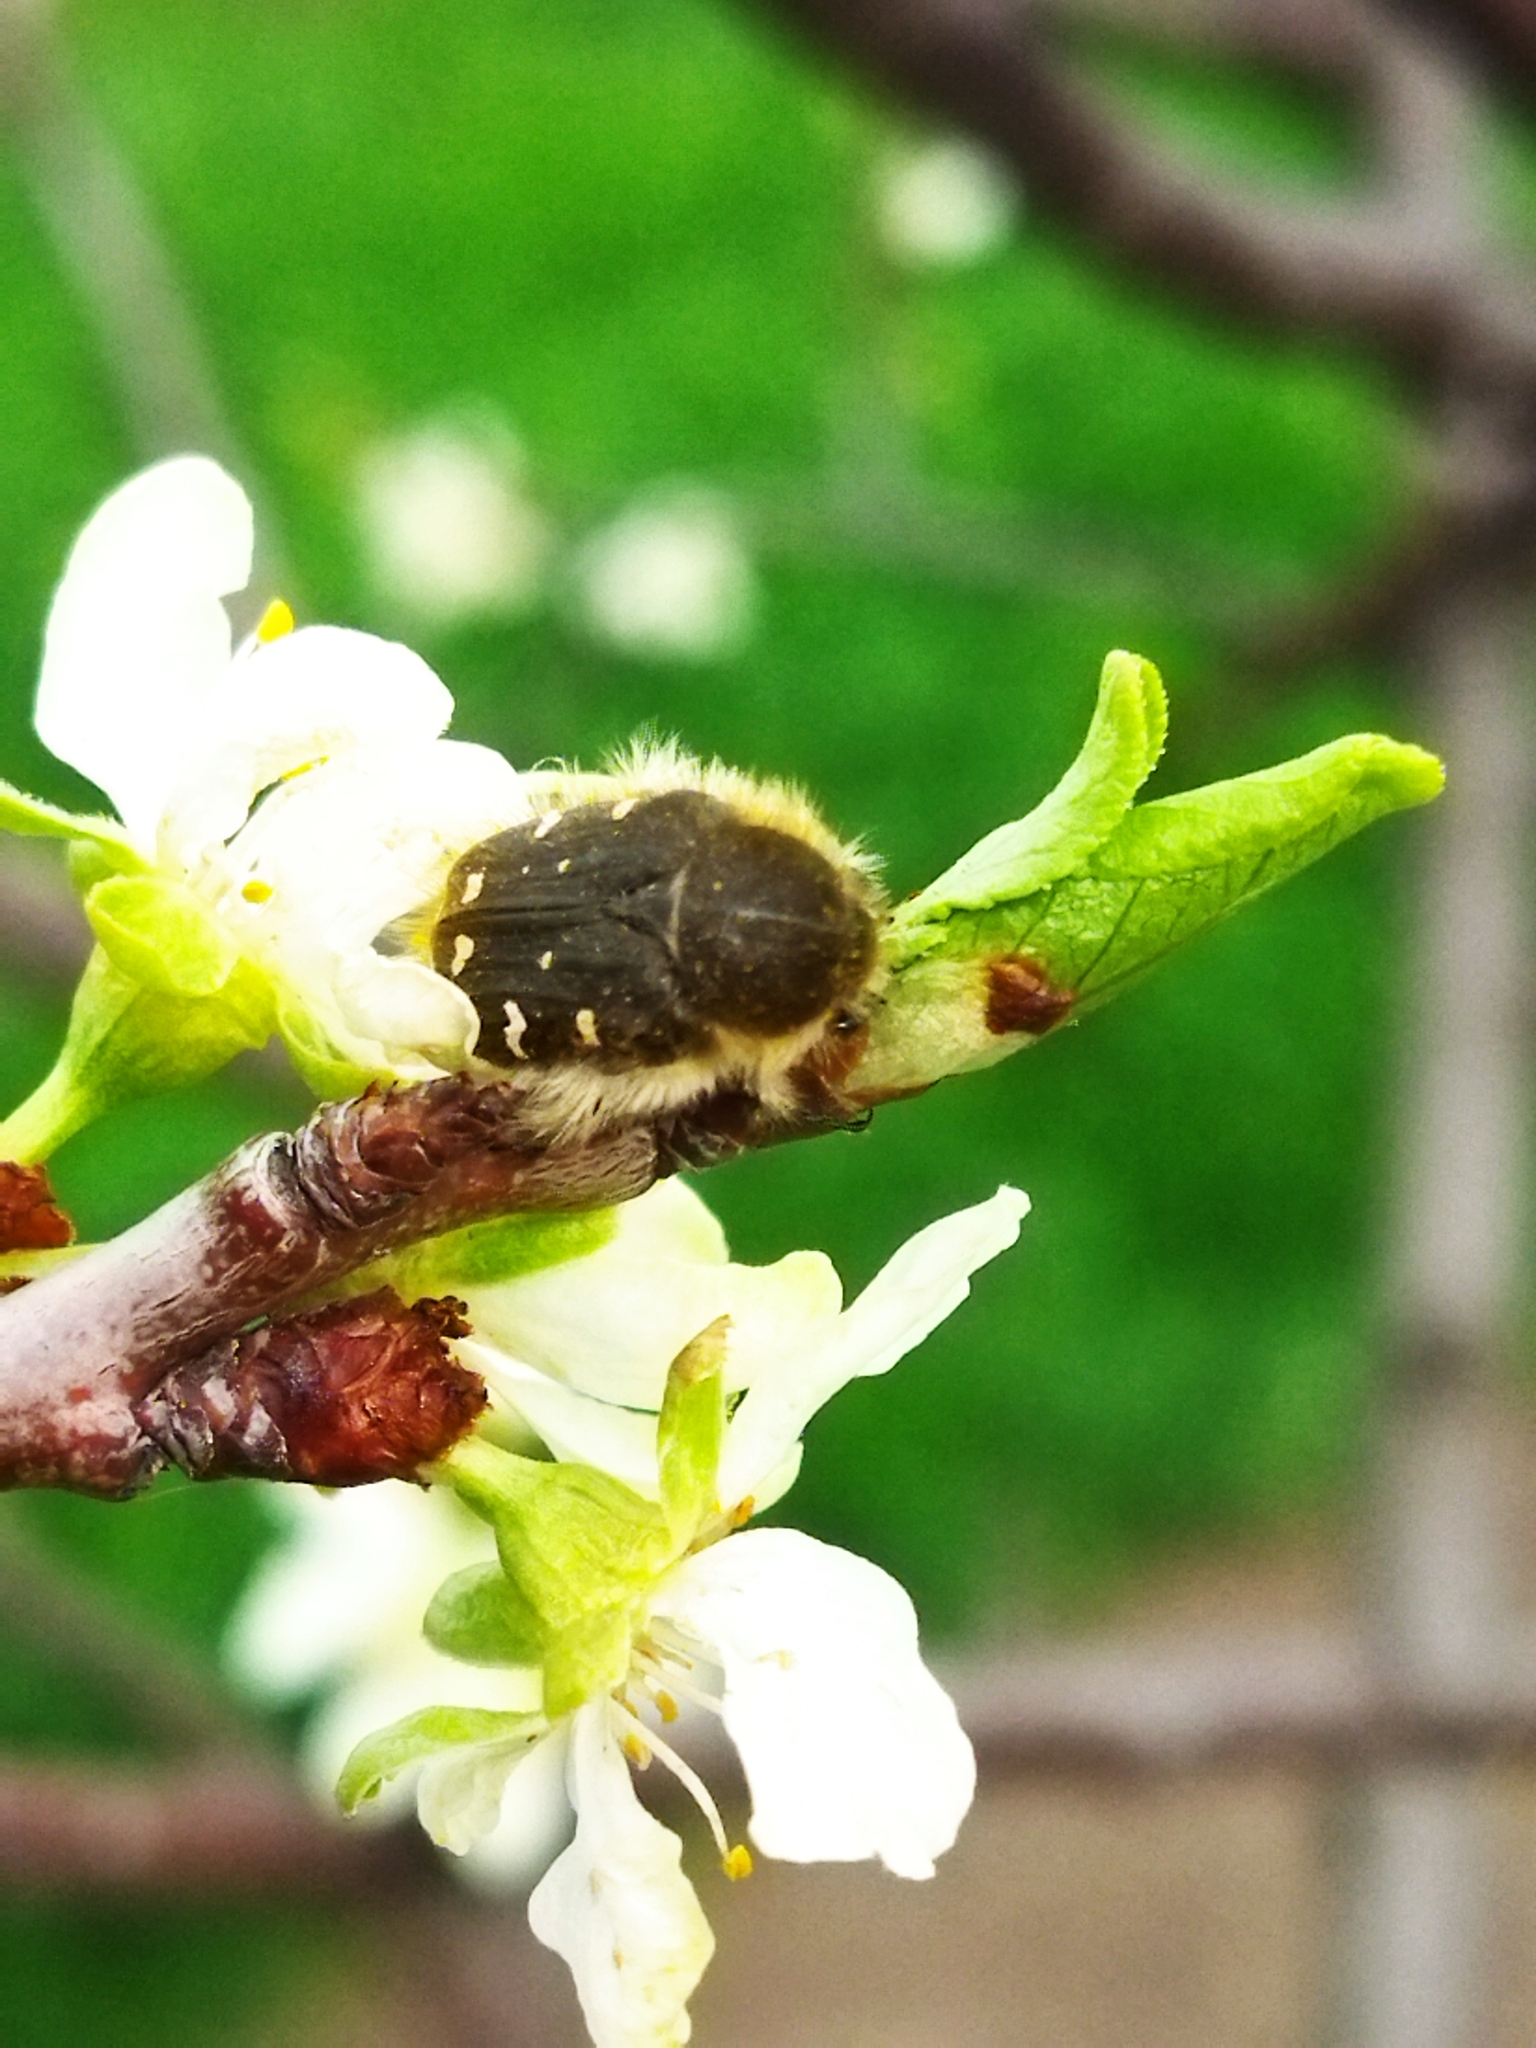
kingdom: Animalia
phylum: Arthropoda
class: Insecta
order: Coleoptera
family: Scarabaeidae
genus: Tropinota
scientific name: Tropinota hirta
